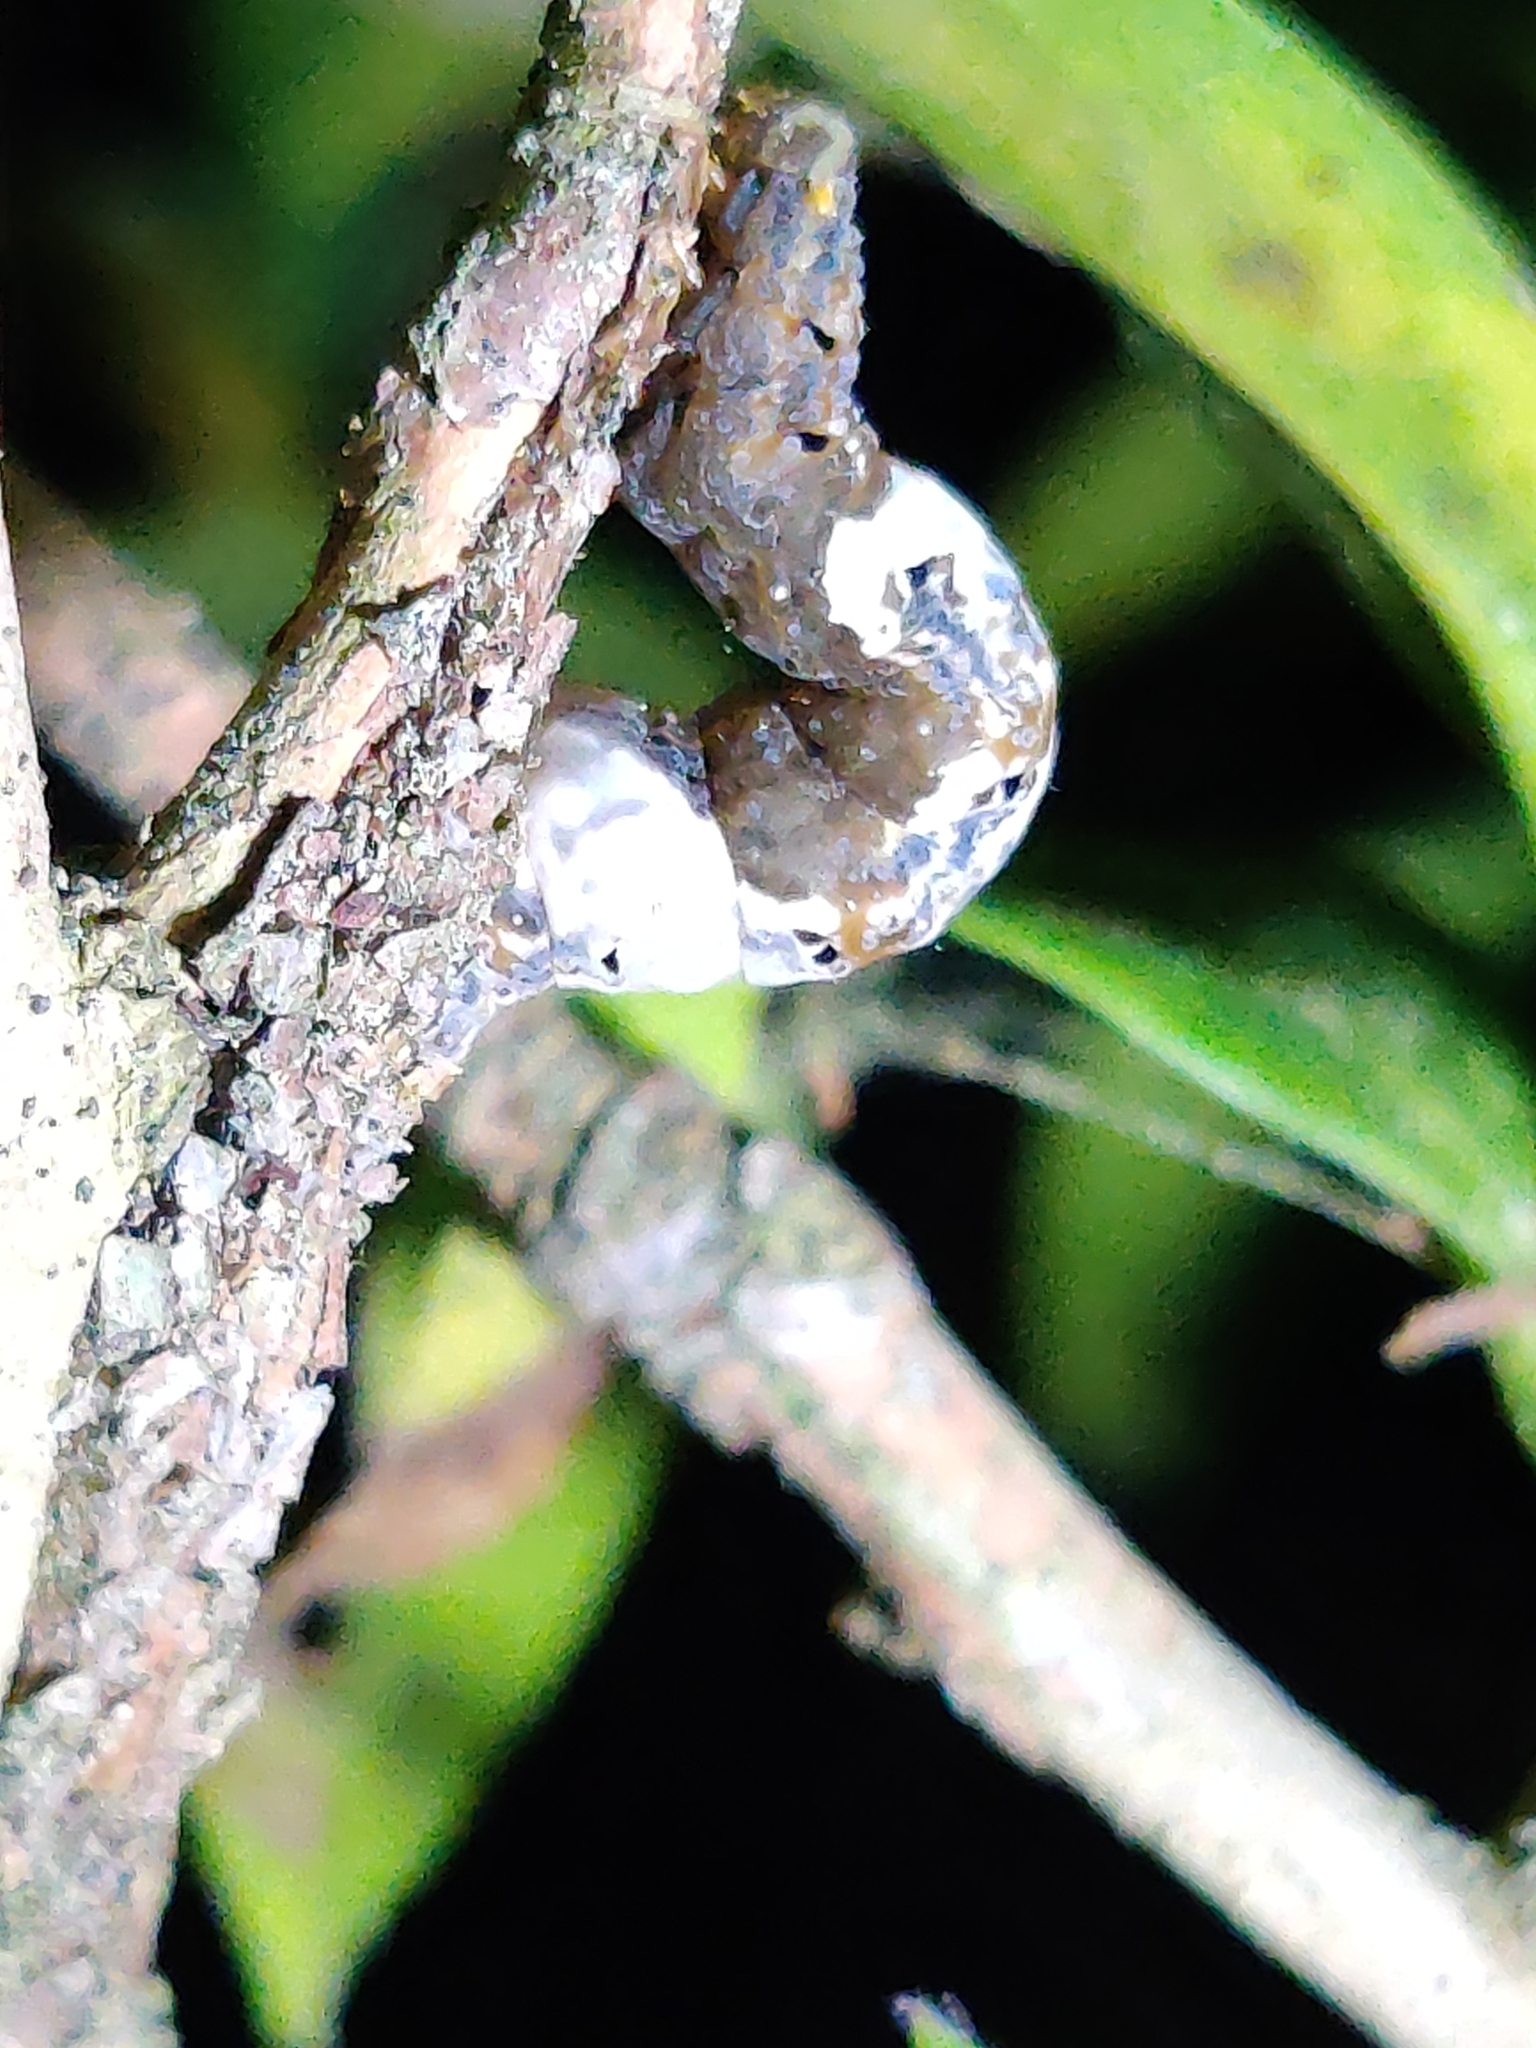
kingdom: Animalia
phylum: Arthropoda
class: Insecta
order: Lepidoptera
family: Erebidae
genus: Plusiodonta
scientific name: Plusiodonta compressipalpis
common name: Moonseed moth
